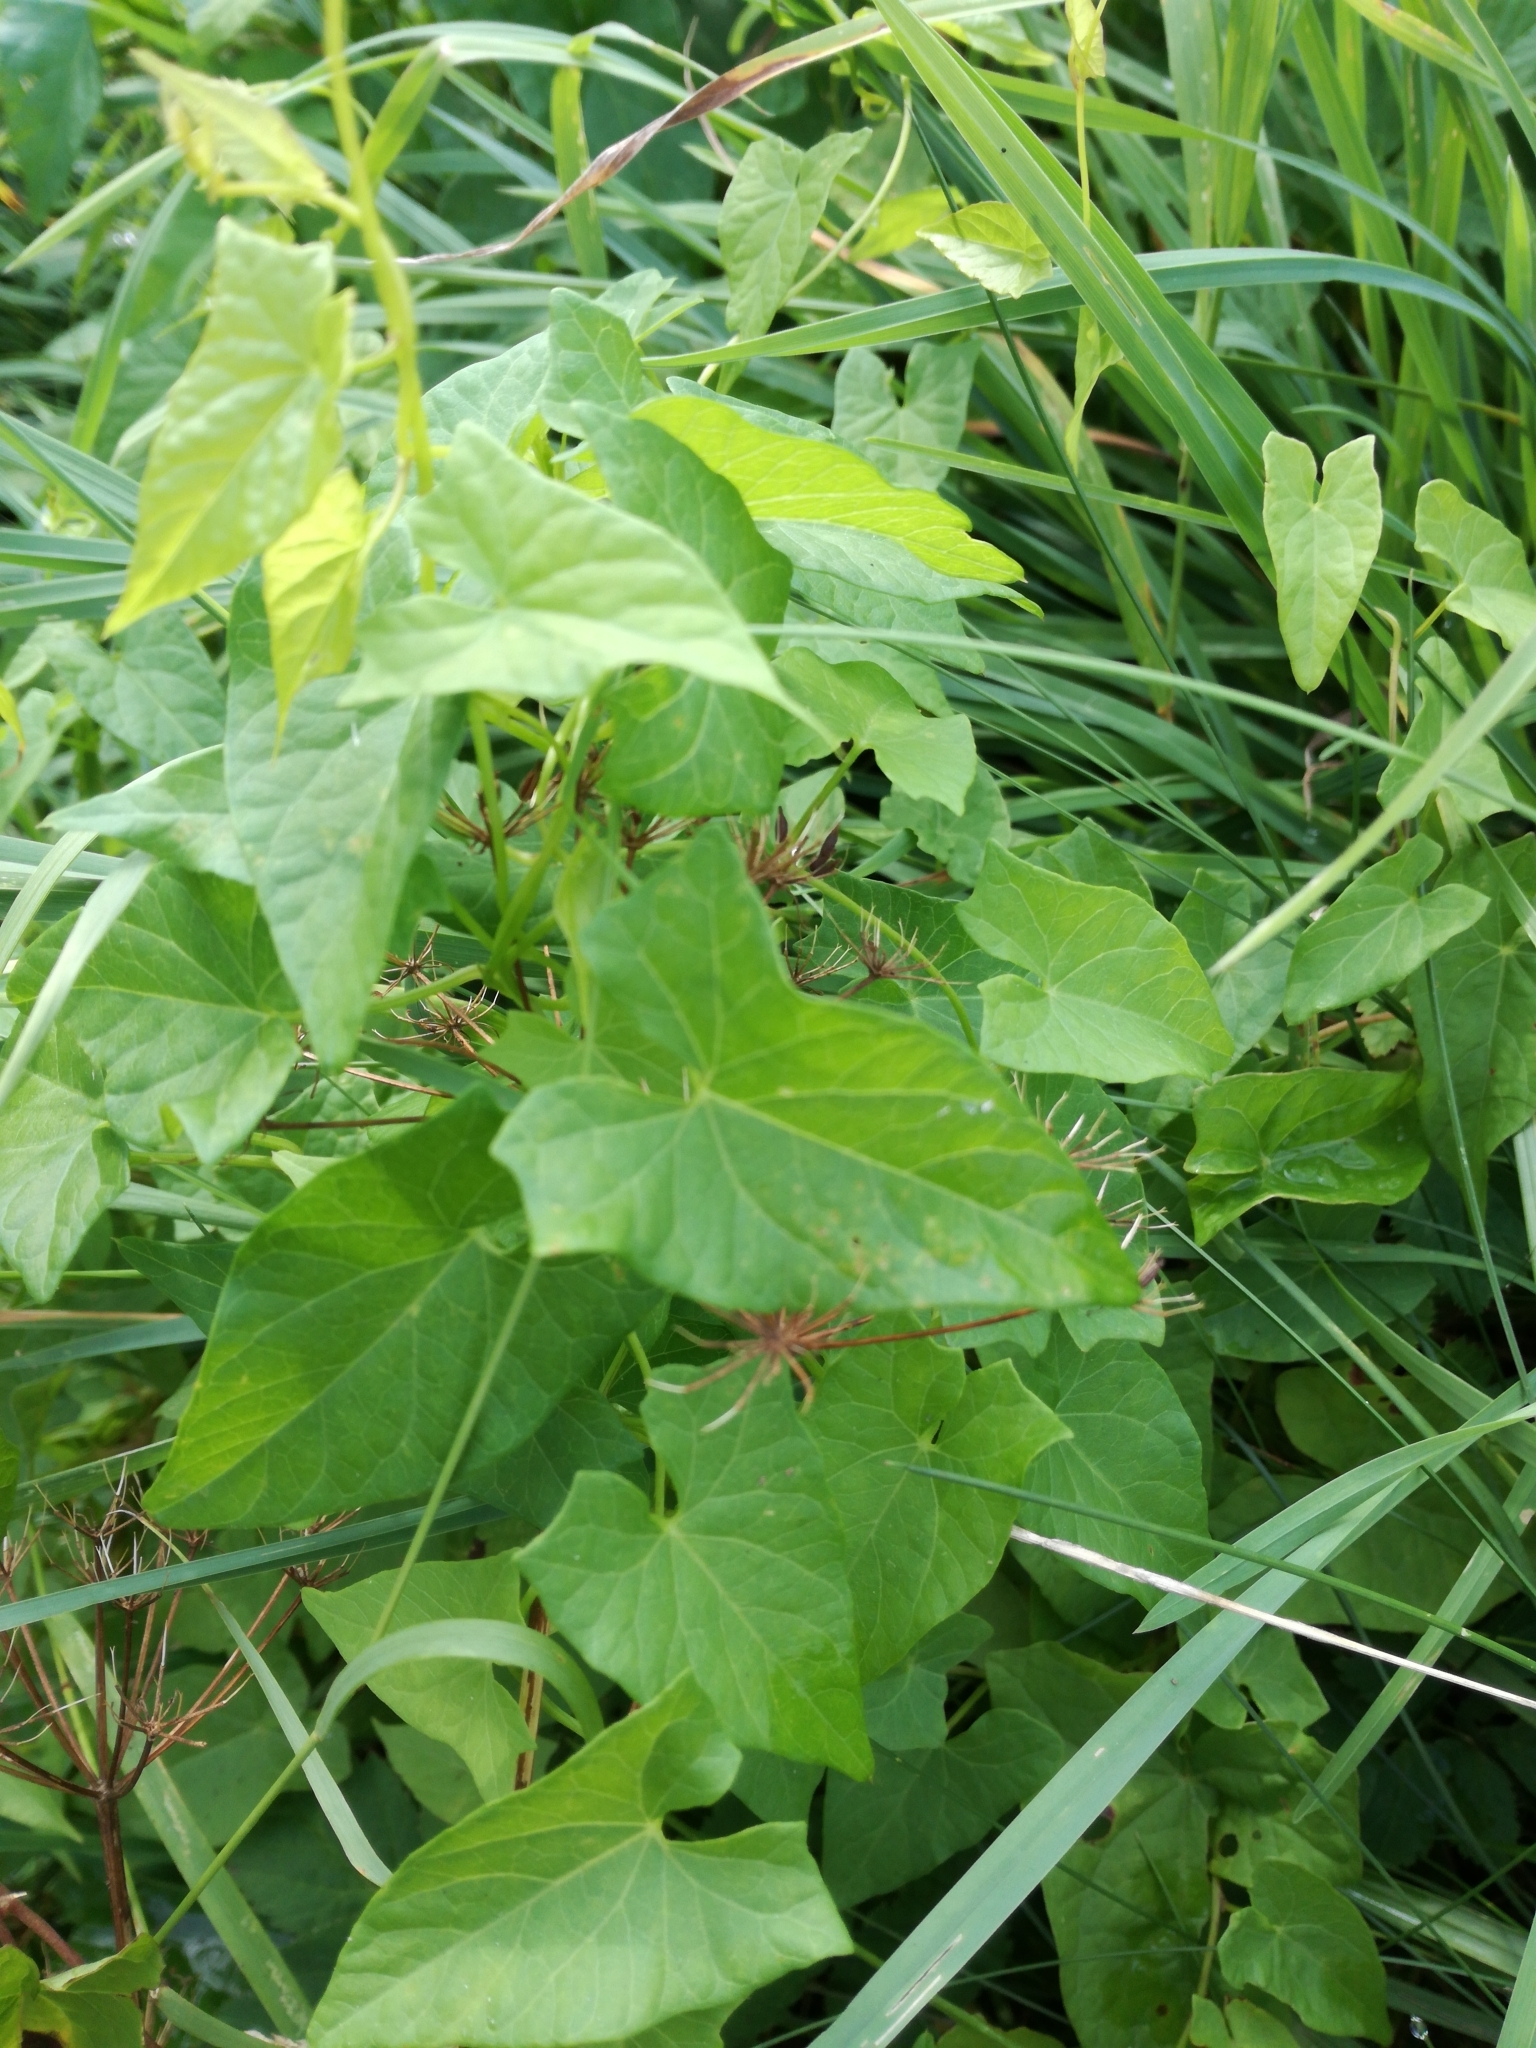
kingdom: Plantae
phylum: Tracheophyta
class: Magnoliopsida
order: Solanales
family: Convolvulaceae
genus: Calystegia
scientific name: Calystegia sepium
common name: Hedge bindweed
